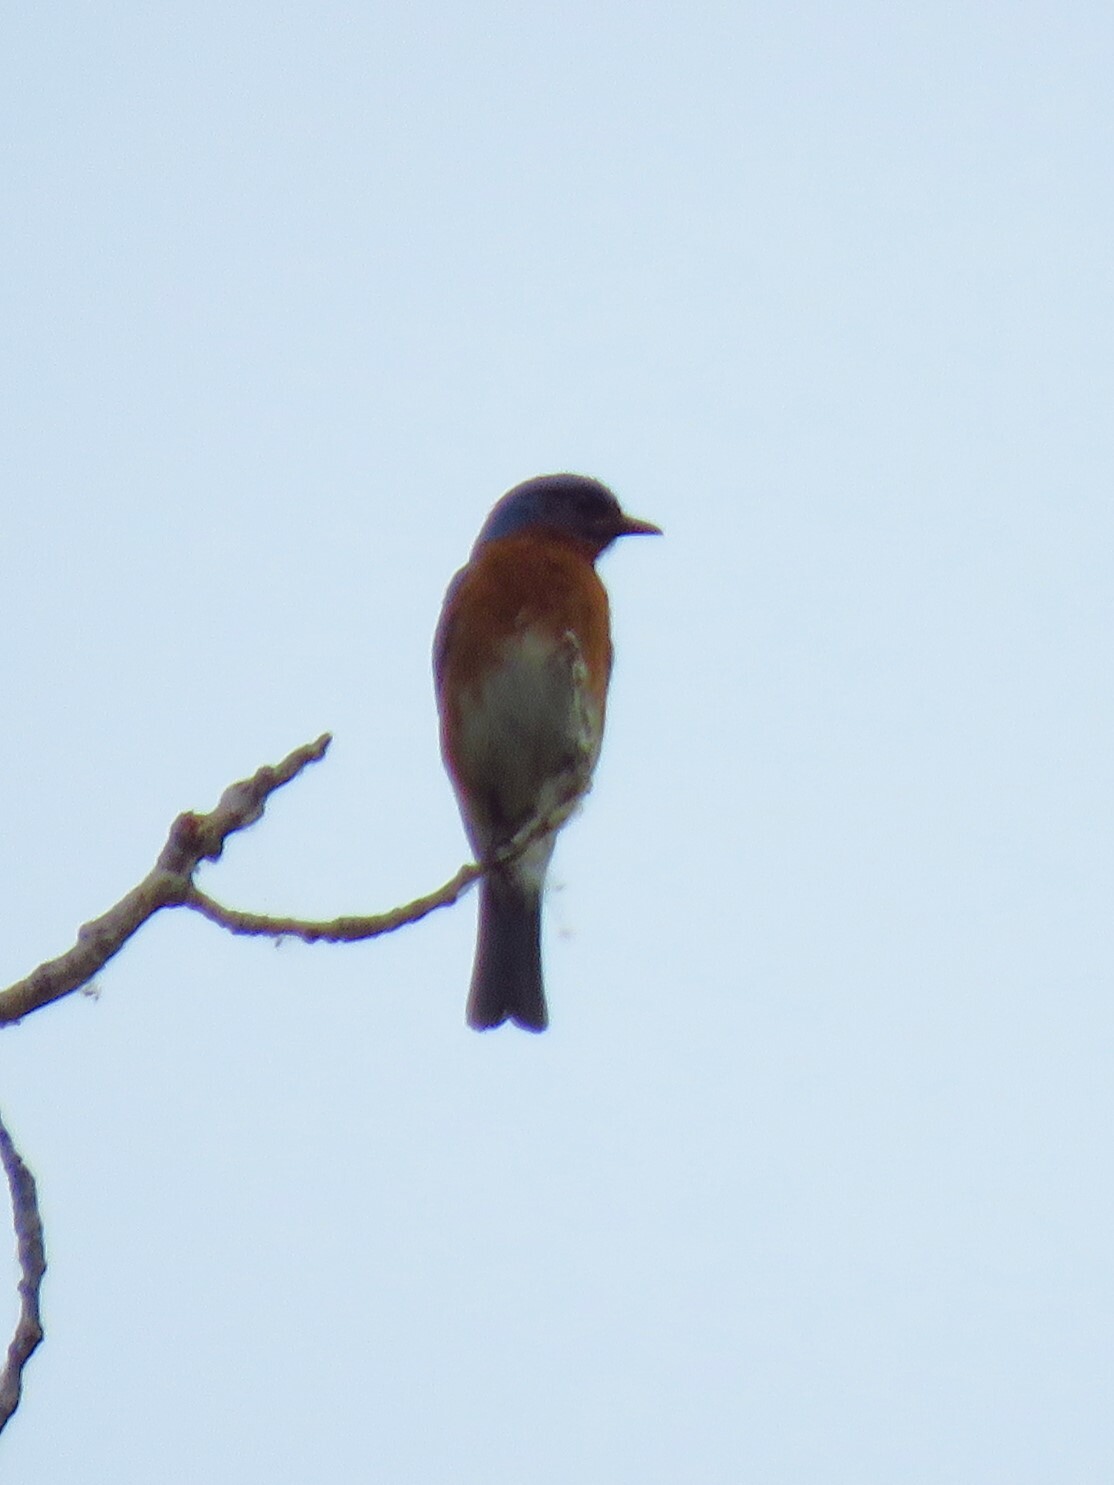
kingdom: Animalia
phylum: Chordata
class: Aves
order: Passeriformes
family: Turdidae
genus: Sialia
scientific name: Sialia sialis
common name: Eastern bluebird
